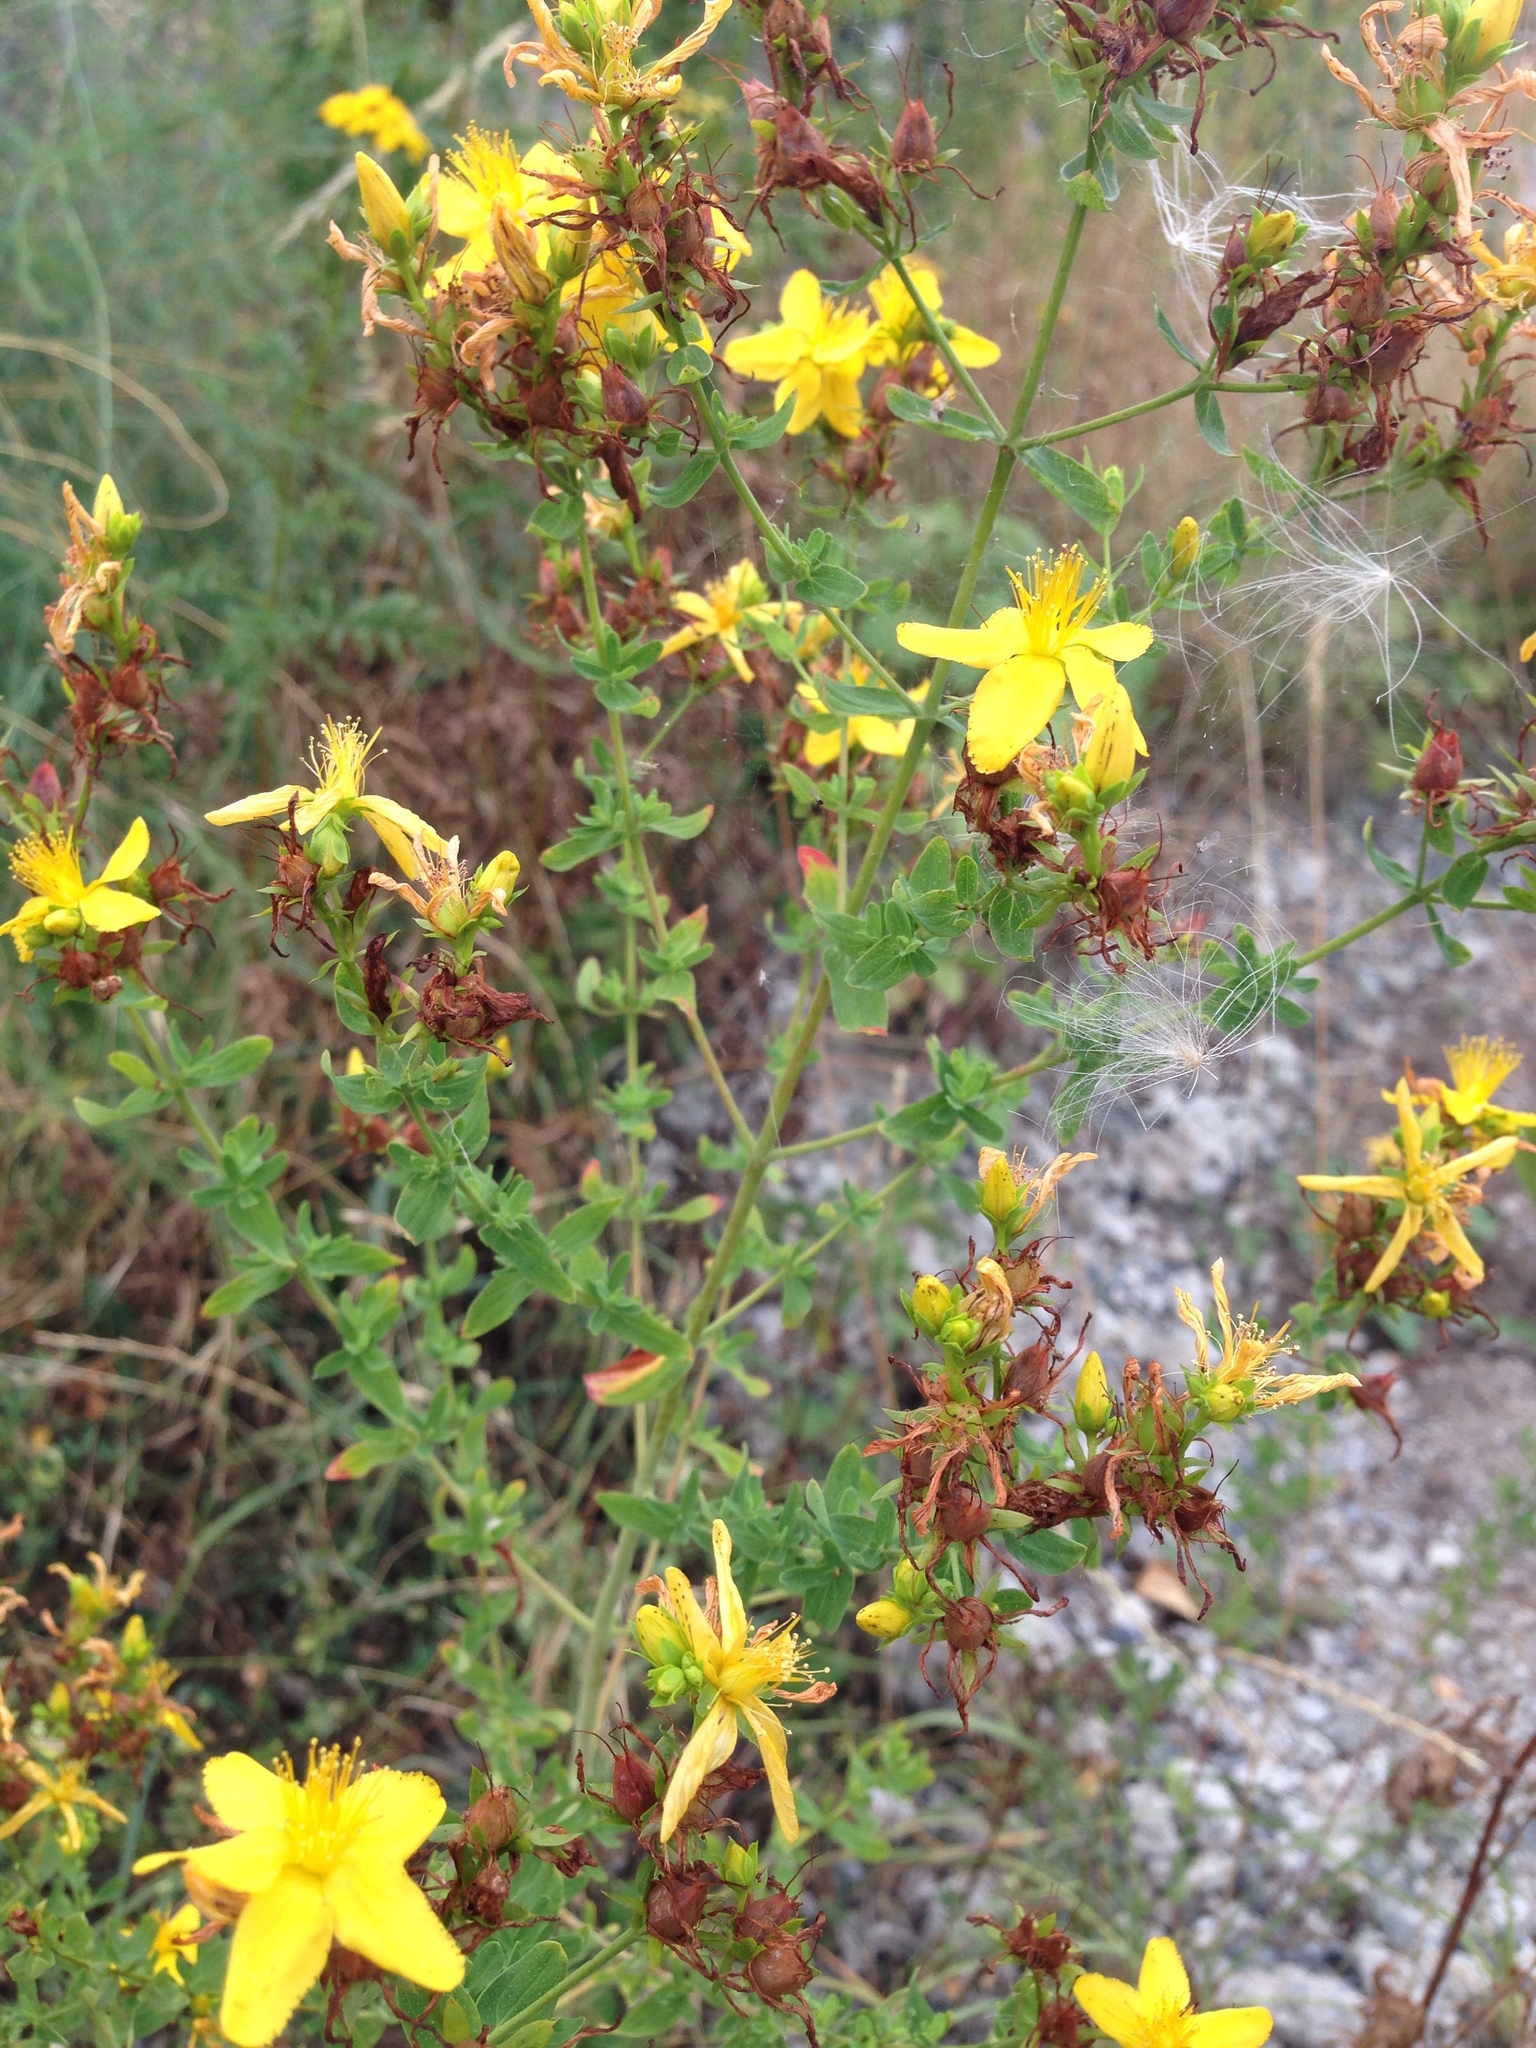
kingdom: Plantae
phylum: Tracheophyta
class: Magnoliopsida
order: Malpighiales
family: Hypericaceae
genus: Hypericum
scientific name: Hypericum perforatum
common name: Common st. johnswort
